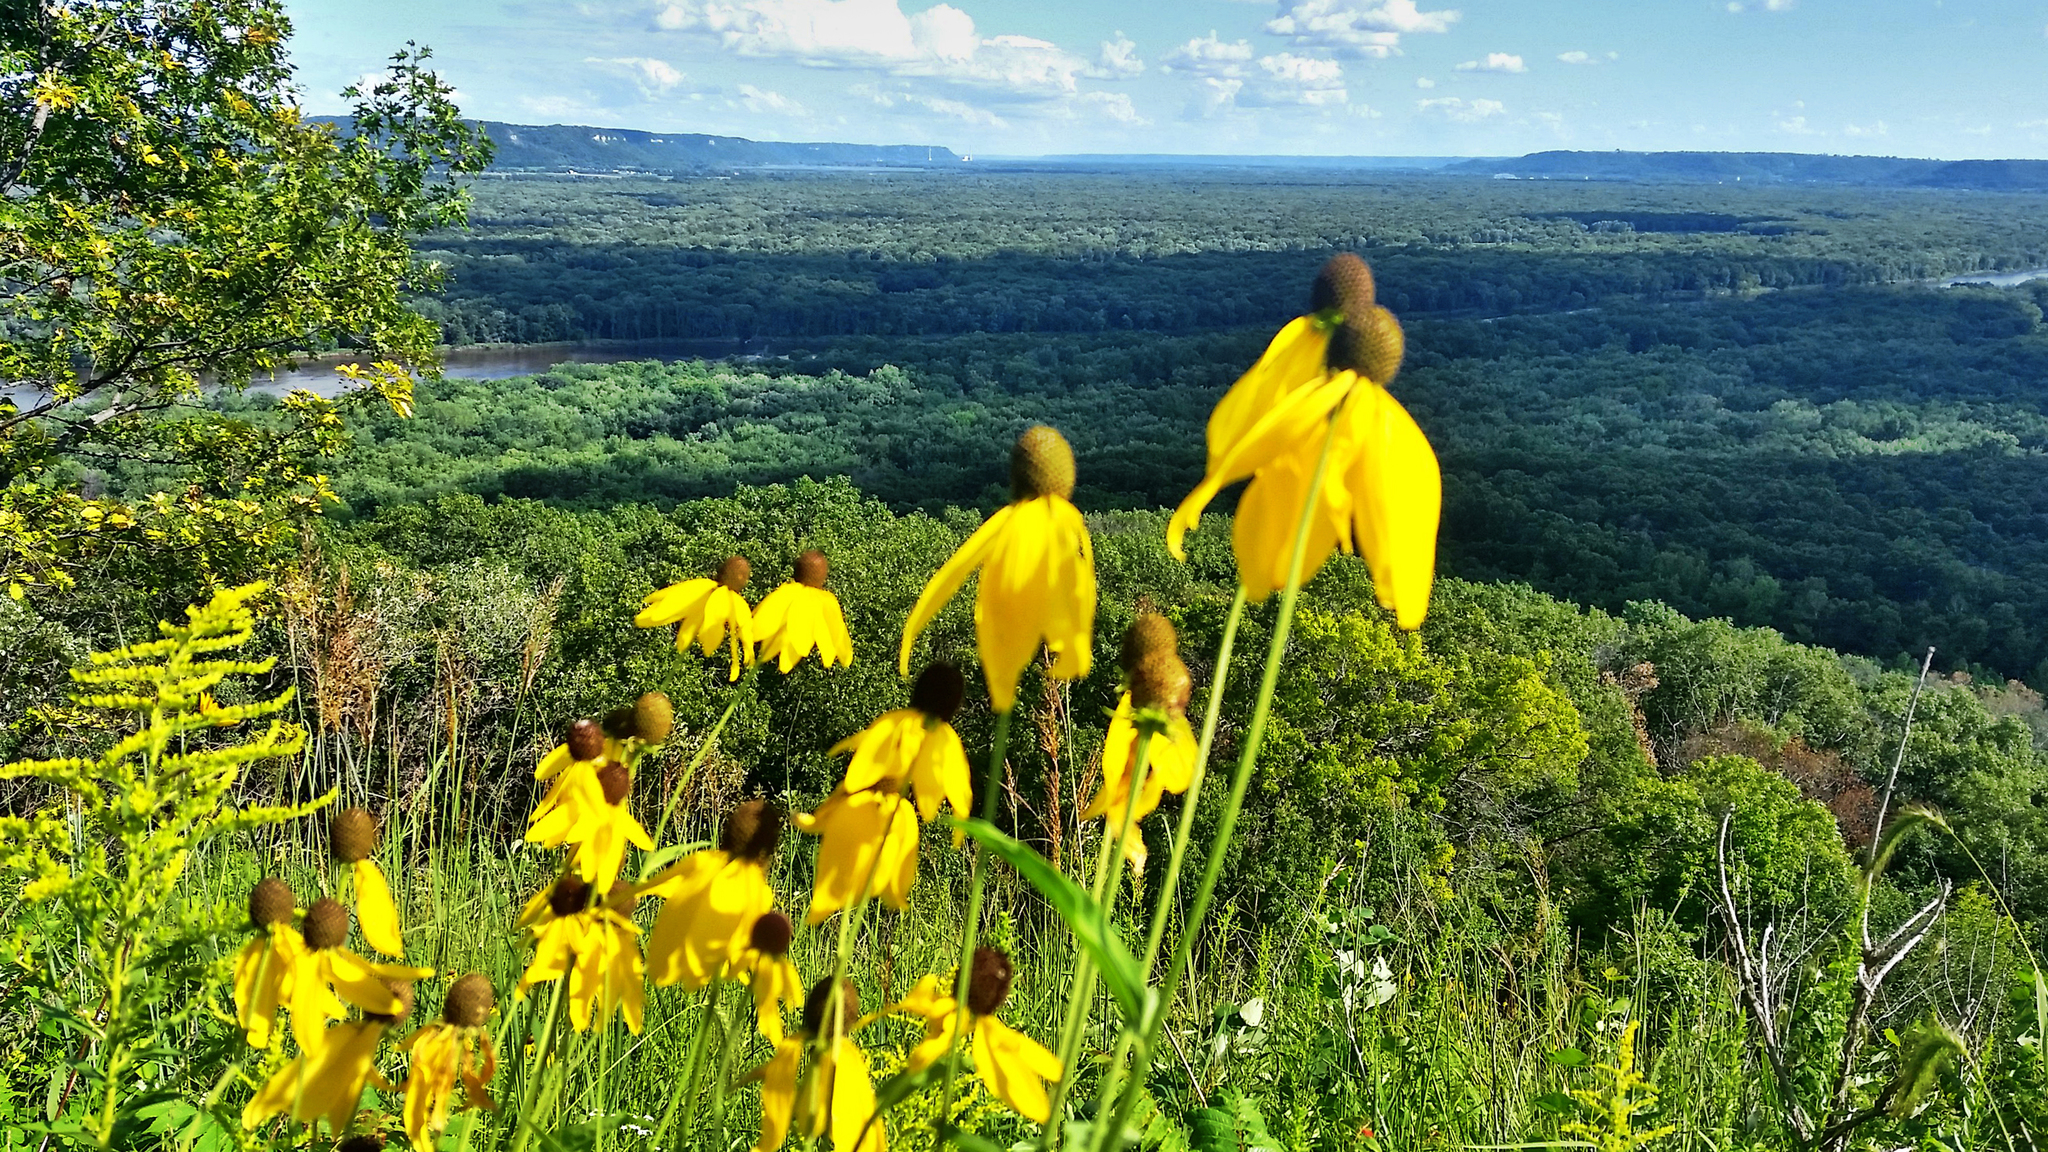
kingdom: Plantae
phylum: Tracheophyta
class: Magnoliopsida
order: Asterales
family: Asteraceae
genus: Ratibida
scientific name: Ratibida pinnata
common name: Drooping prairie-coneflower
